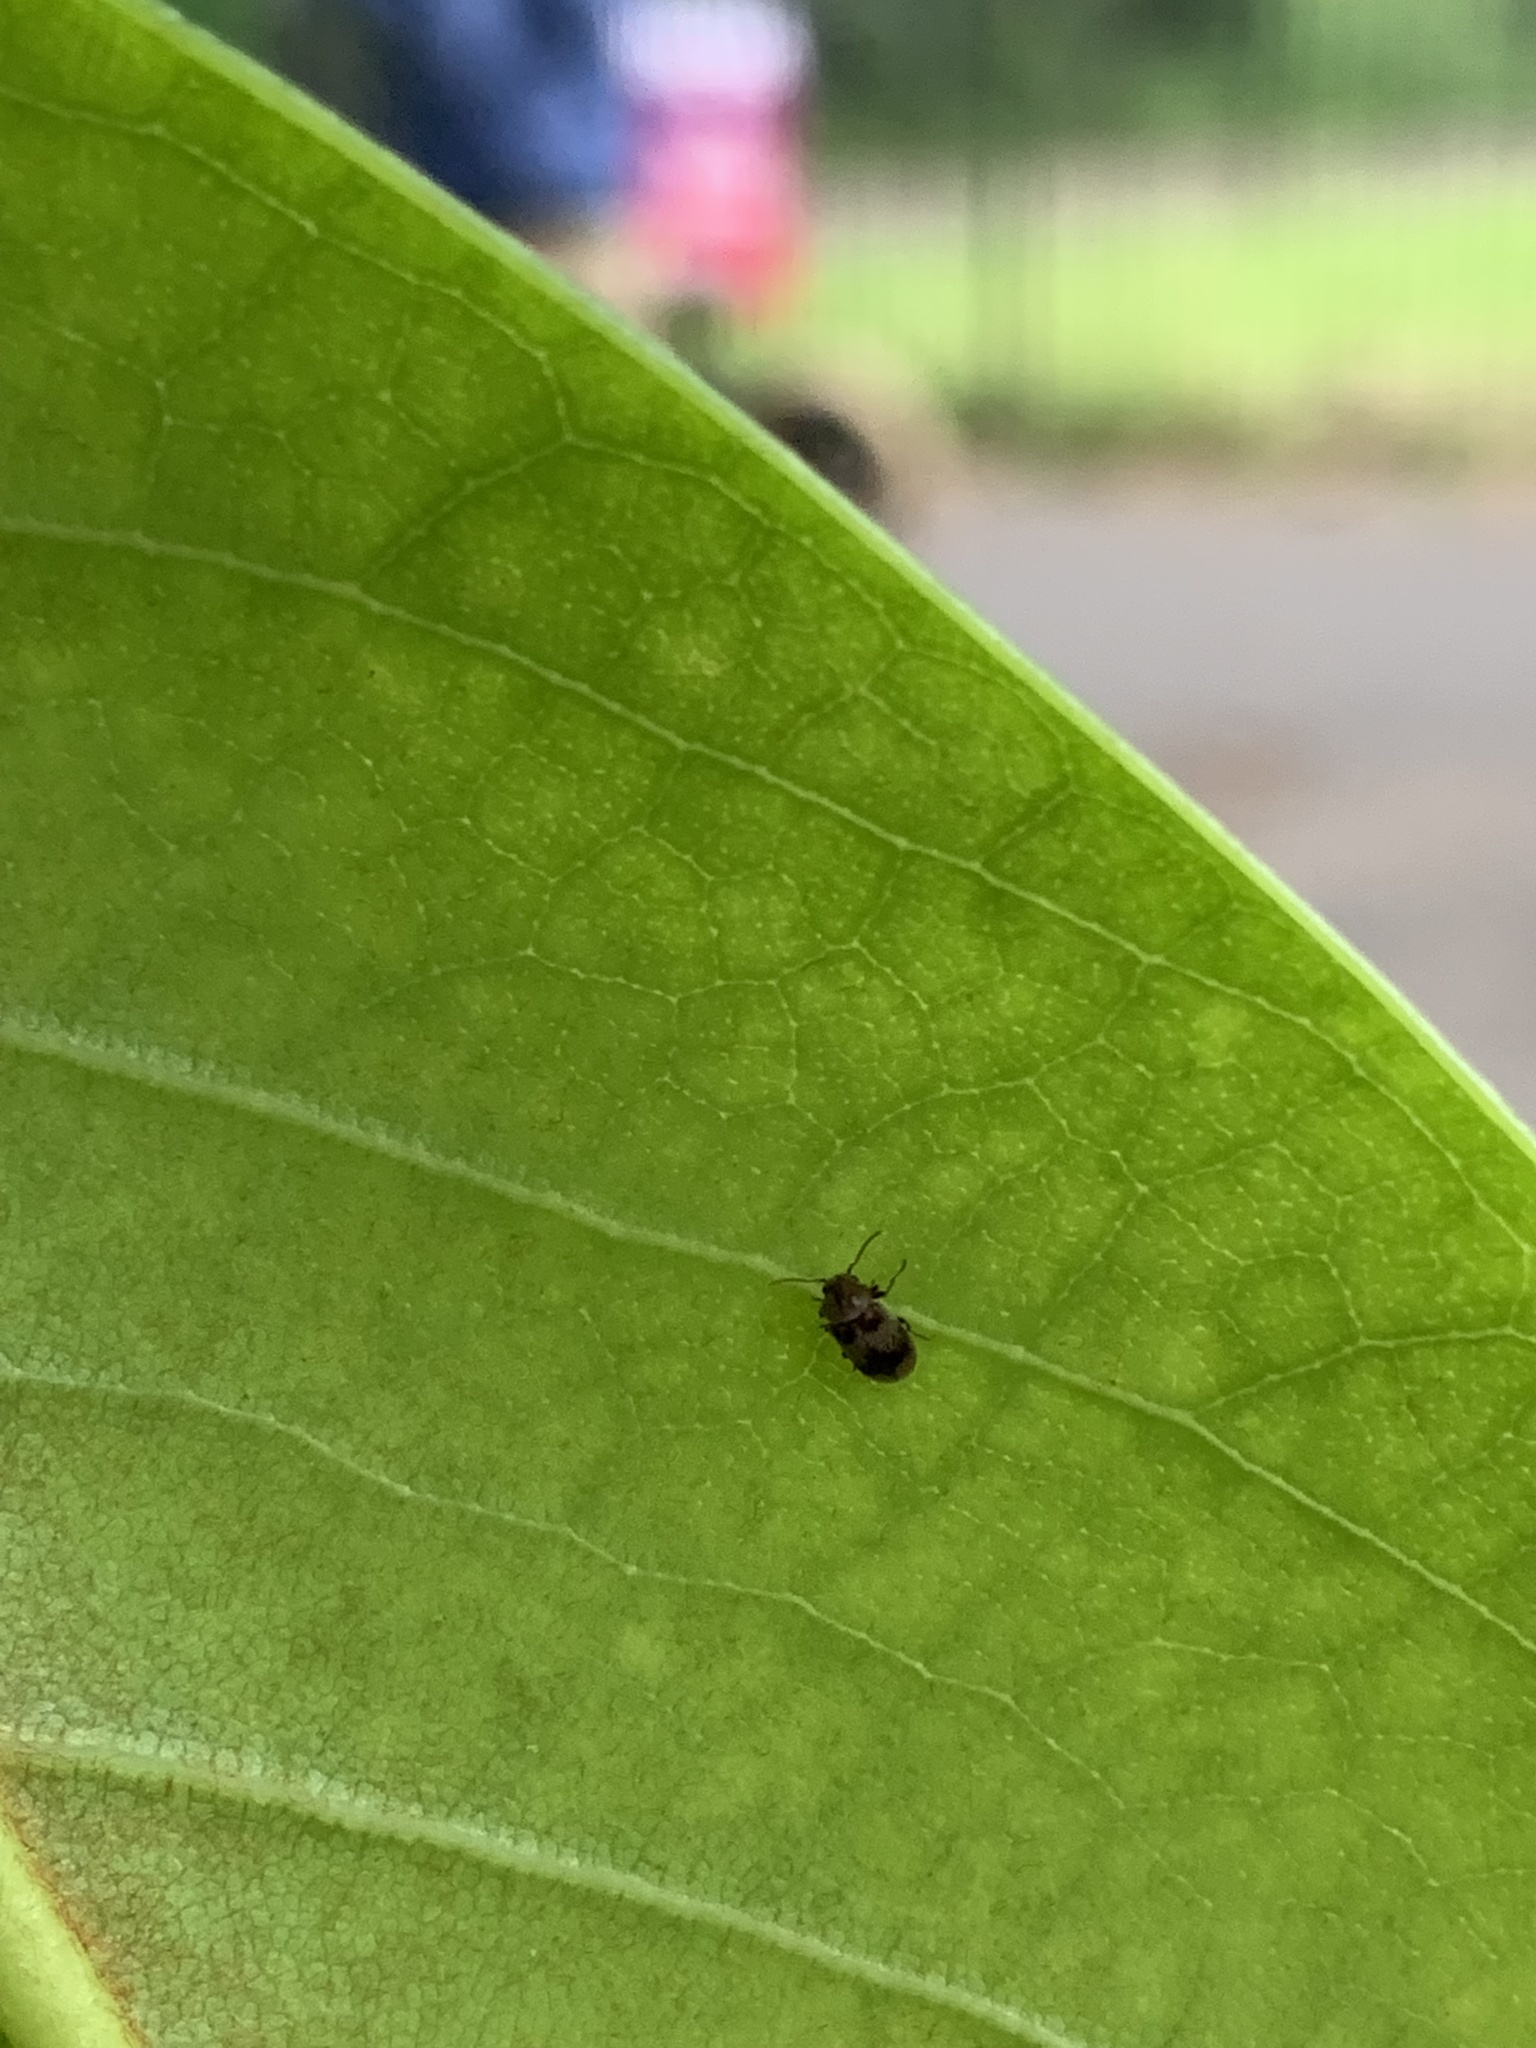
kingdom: Animalia
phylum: Arthropoda
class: Insecta
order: Coleoptera
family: Ptinidae
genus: Ochina
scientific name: Ochina ptinoides
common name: Ivy boring beetle
